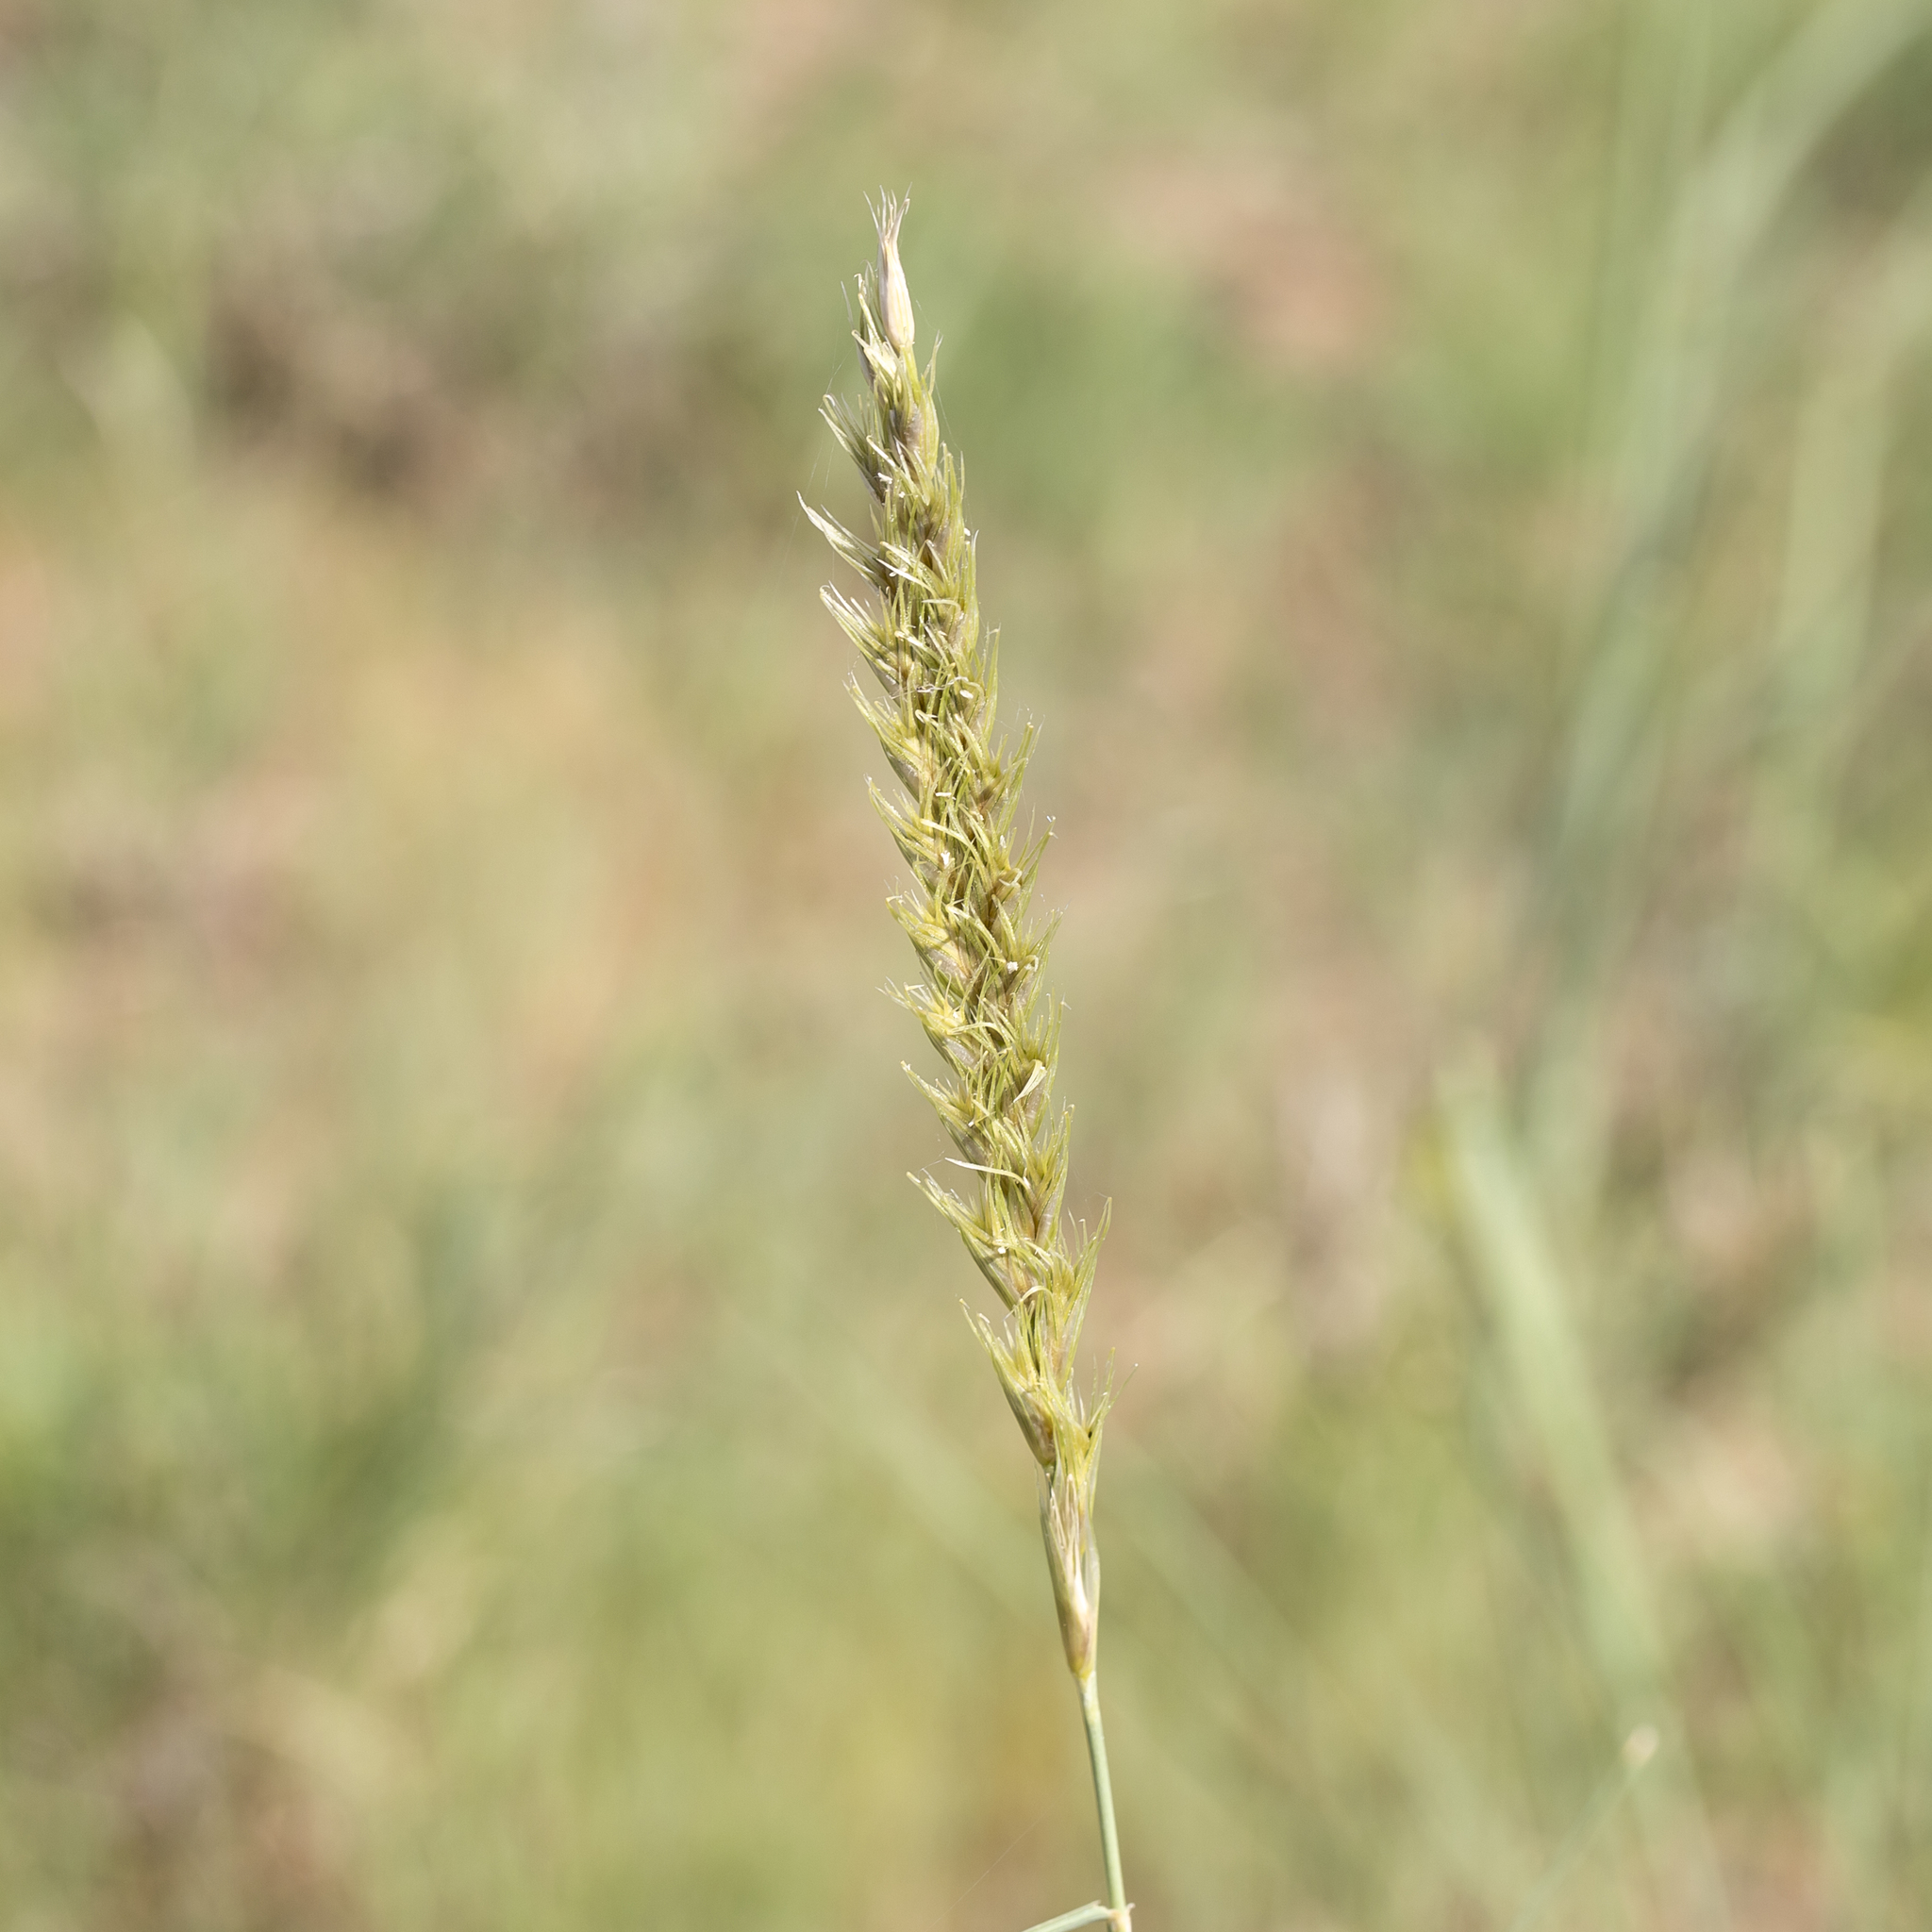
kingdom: Plantae
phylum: Tracheophyta
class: Liliopsida
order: Poales
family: Poaceae
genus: Astrebla
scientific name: Astrebla squarrosa
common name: Wheat-ear mitchell grass
